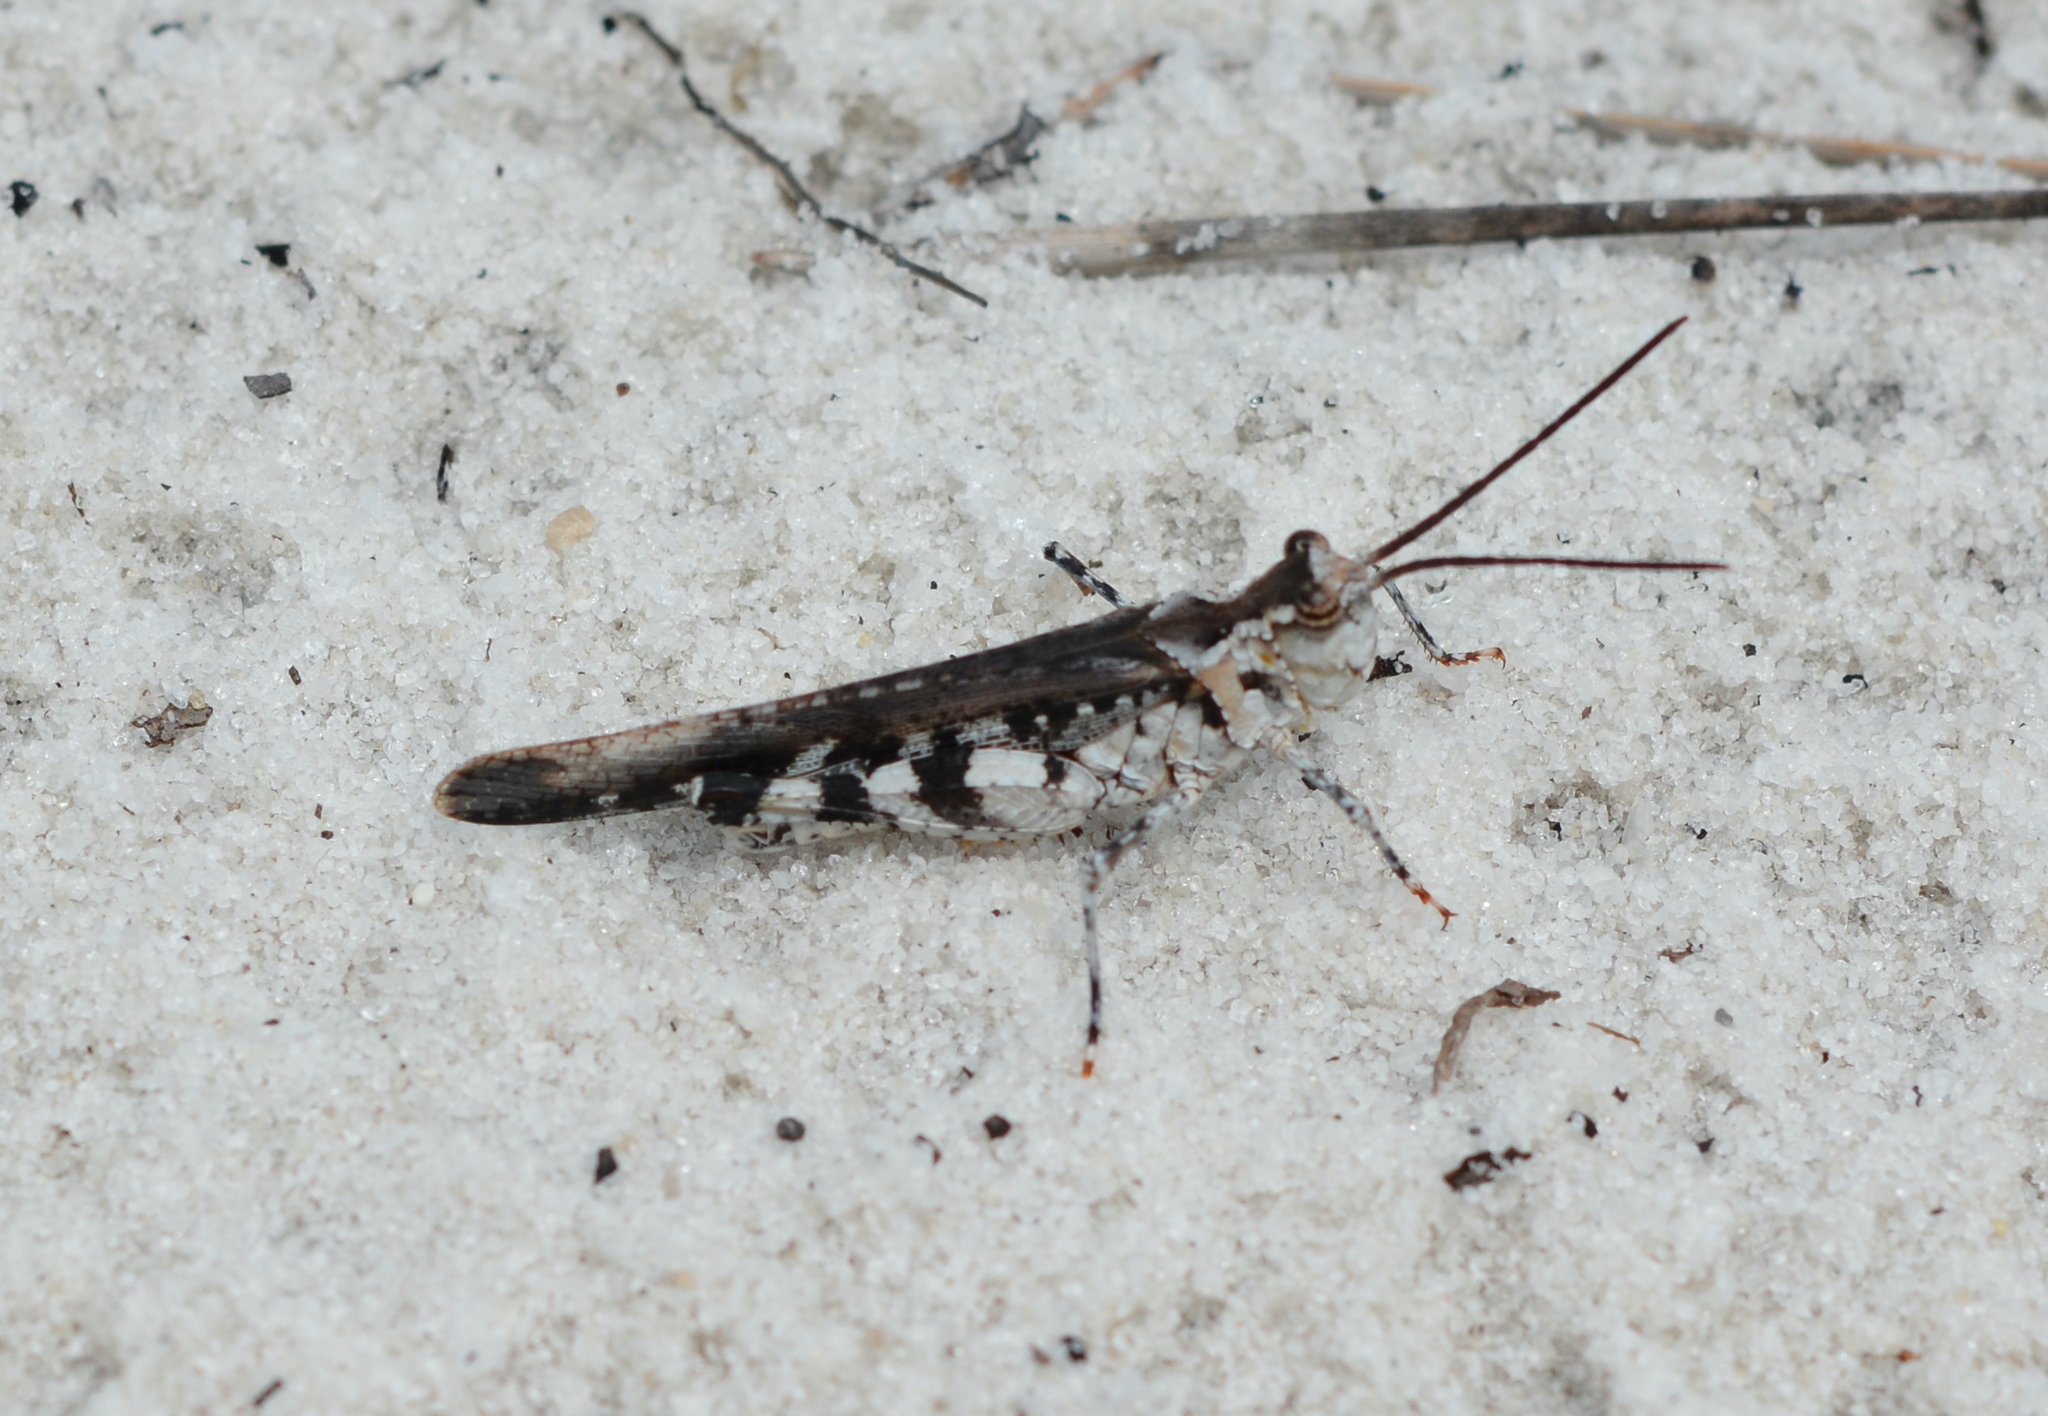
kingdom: Animalia
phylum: Arthropoda
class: Insecta
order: Orthoptera
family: Acrididae
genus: Psinidia
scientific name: Psinidia fenestralis
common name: Long-horned locust
